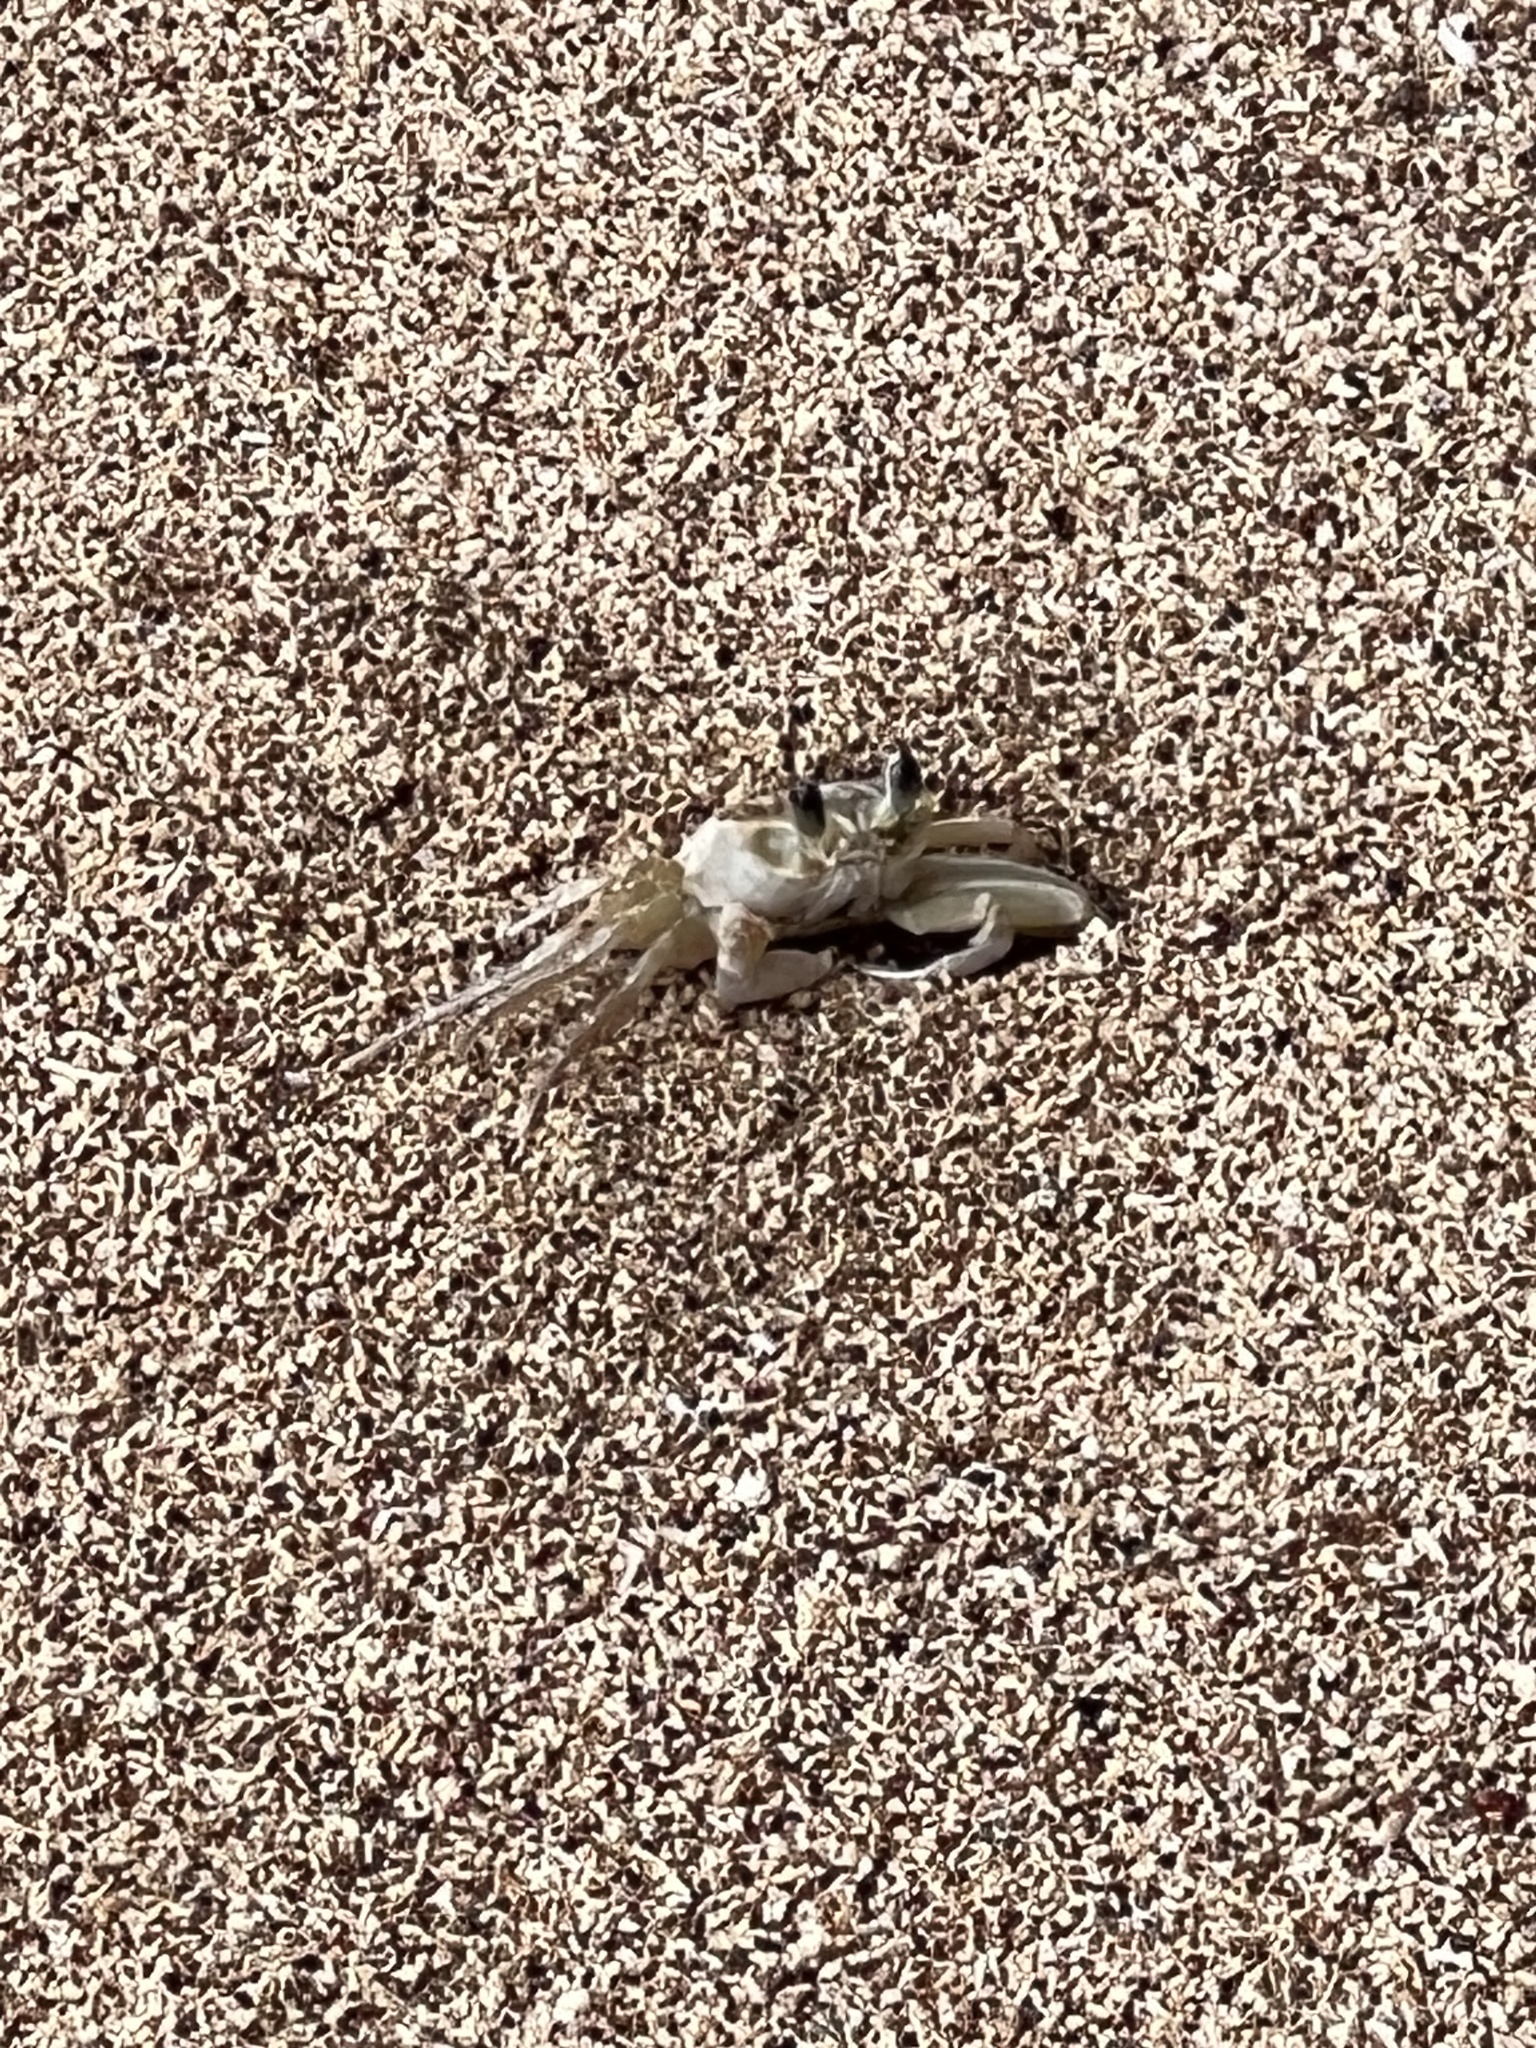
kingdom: Animalia
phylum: Arthropoda
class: Malacostraca
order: Decapoda
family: Ocypodidae
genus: Ocypode
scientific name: Ocypode quadrata
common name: Ghost crab
